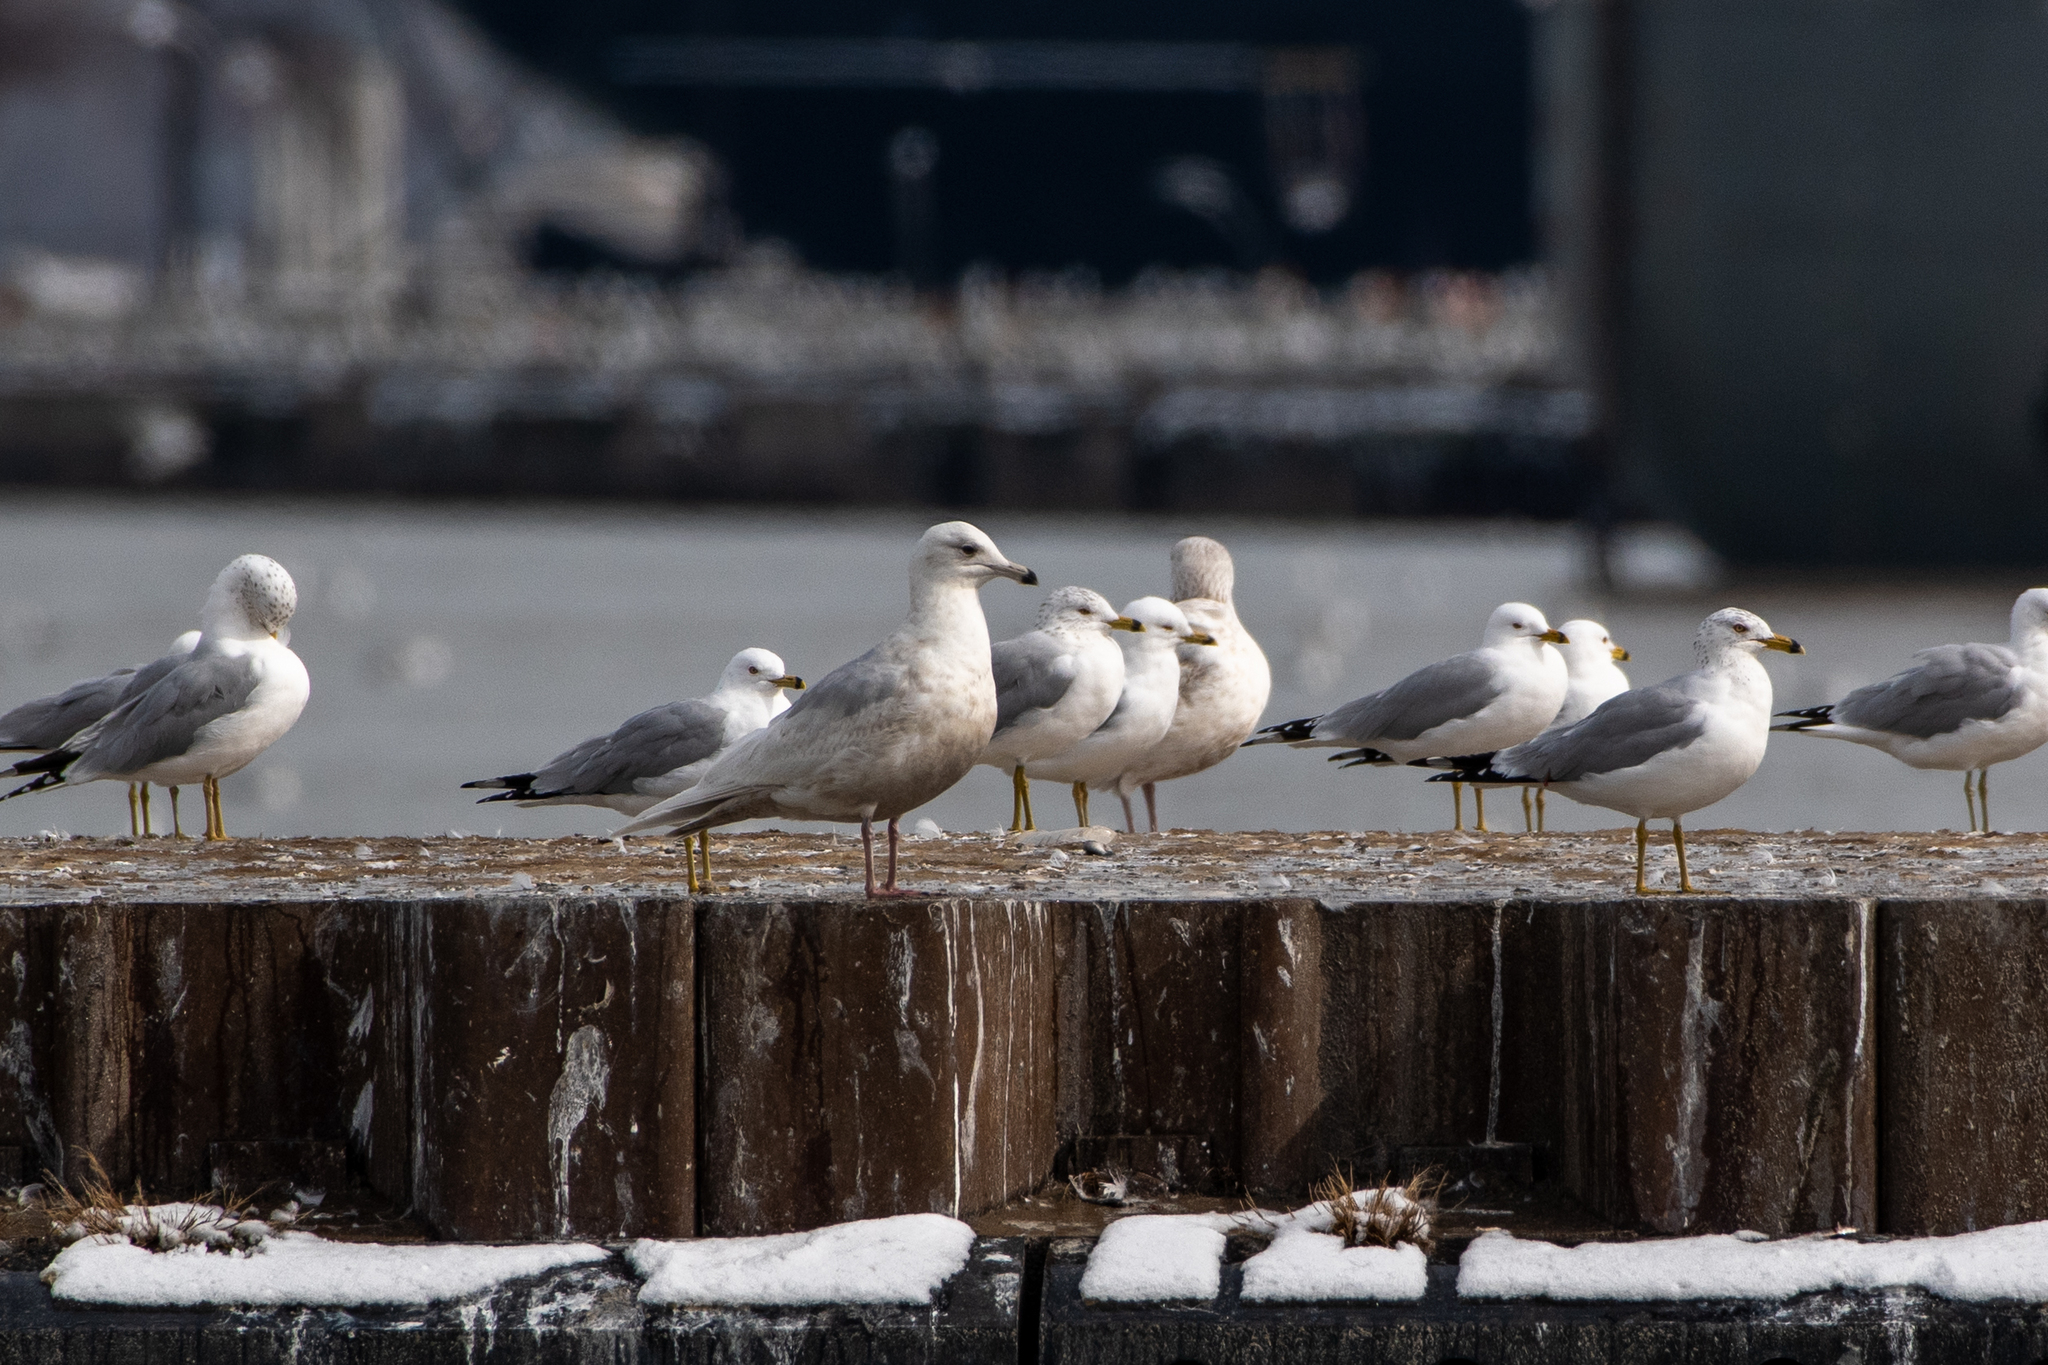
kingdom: Animalia
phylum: Chordata
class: Aves
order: Charadriiformes
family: Laridae
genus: Larus
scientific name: Larus glaucoides
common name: Iceland gull
